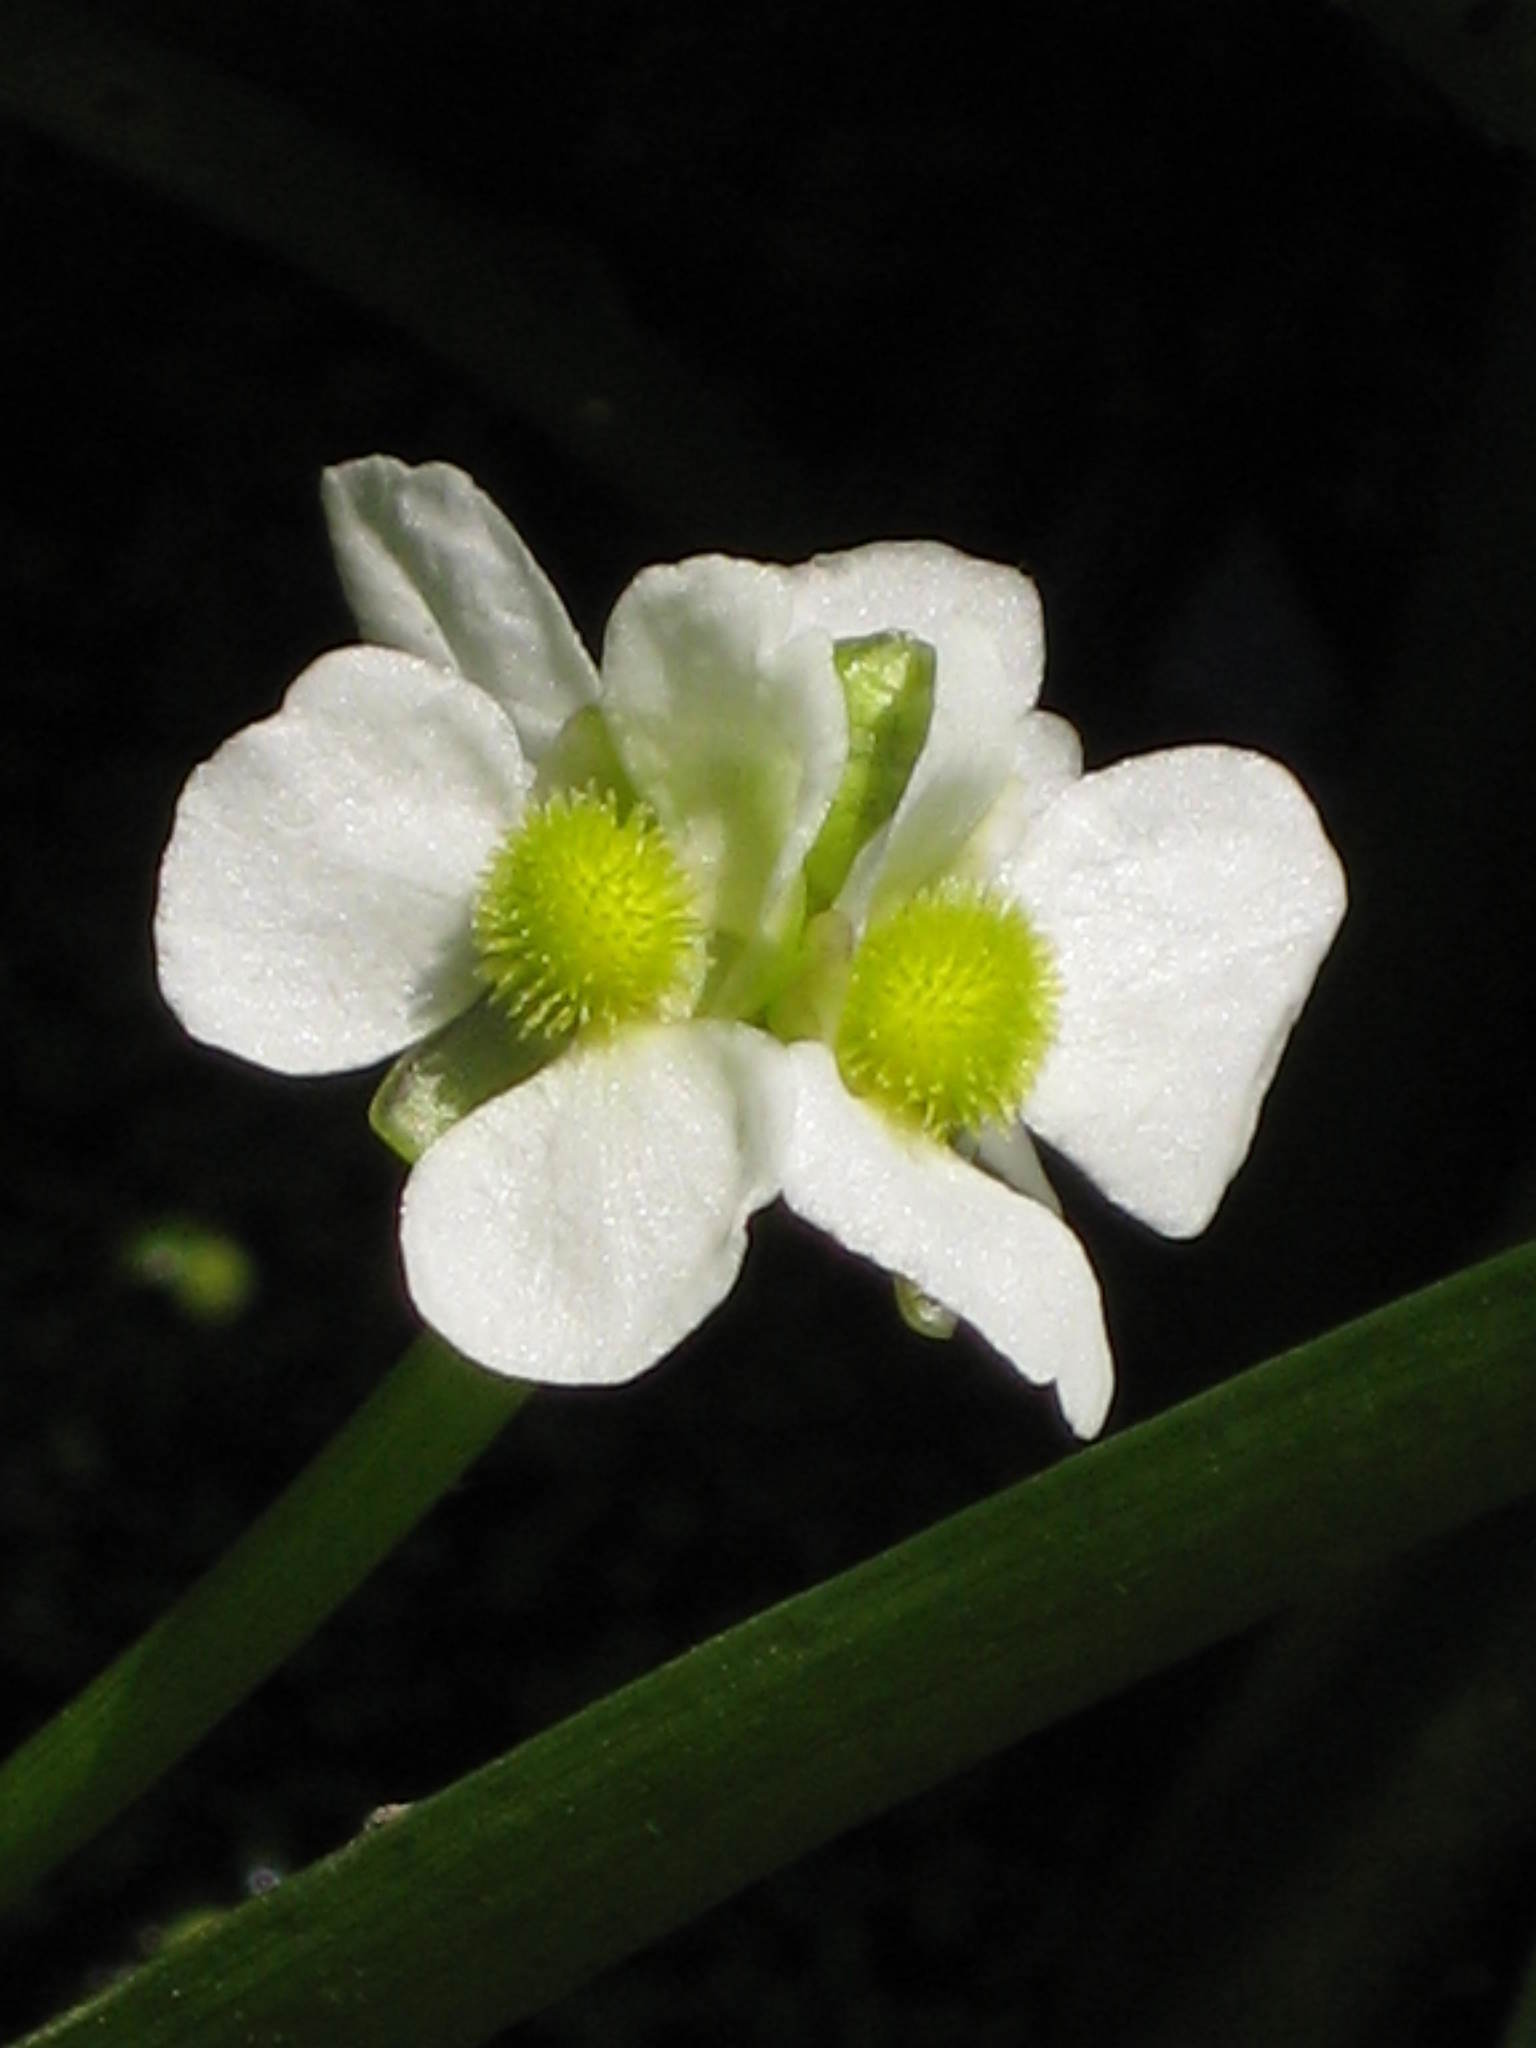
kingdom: Plantae
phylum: Tracheophyta
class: Liliopsida
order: Alismatales
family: Alismataceae
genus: Sagittaria
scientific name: Sagittaria rigida
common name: Canadian arrowhead
